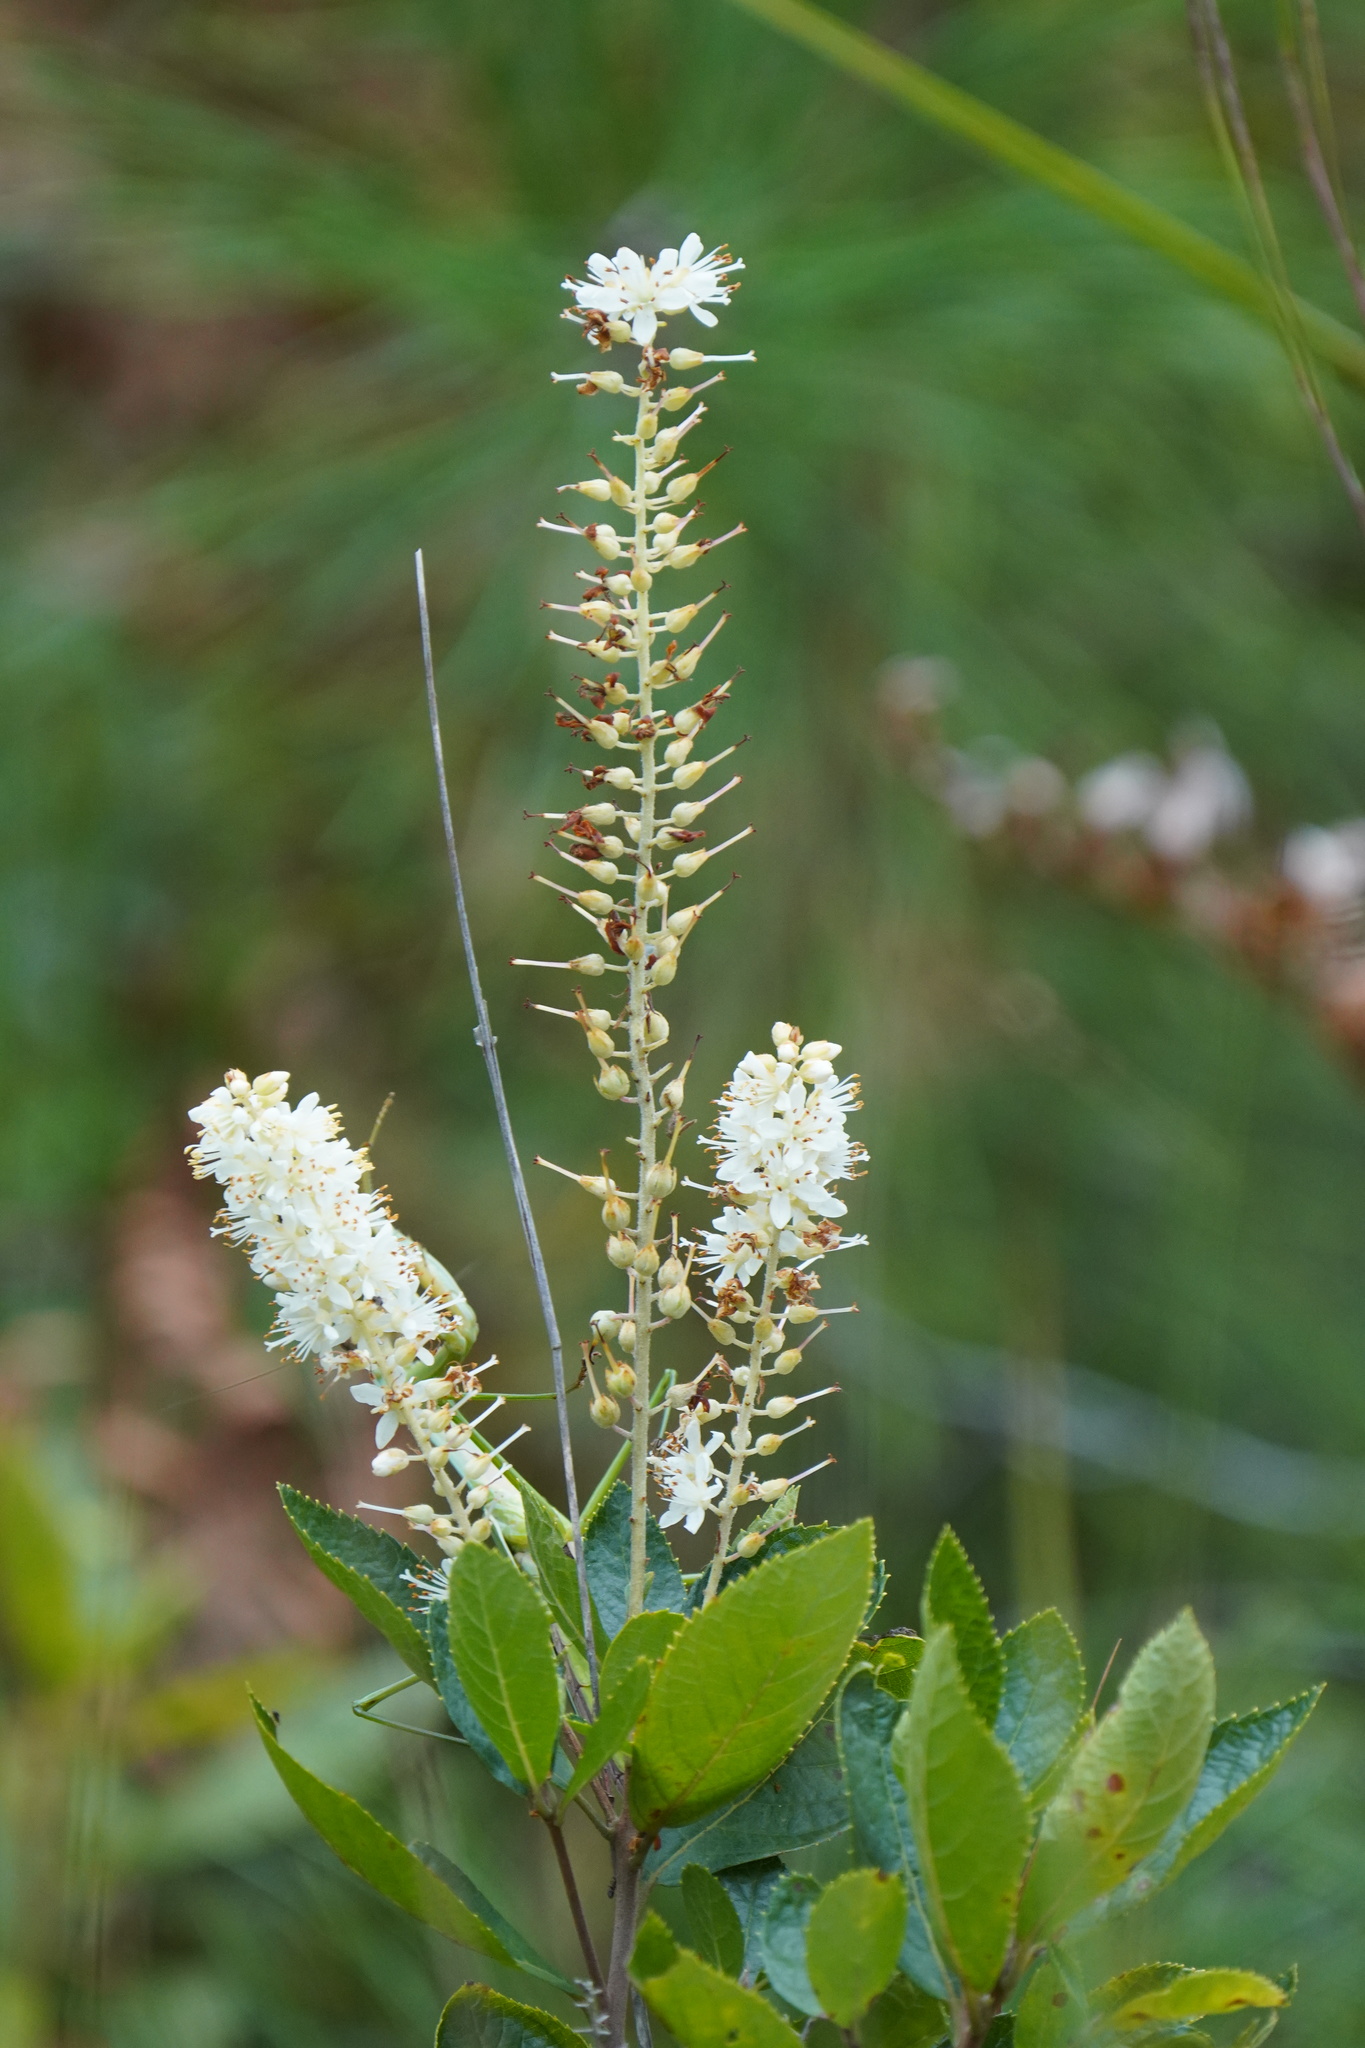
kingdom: Plantae
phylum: Tracheophyta
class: Magnoliopsida
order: Ericales
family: Clethraceae
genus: Clethra
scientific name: Clethra alnifolia
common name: Sweet pepperbush
